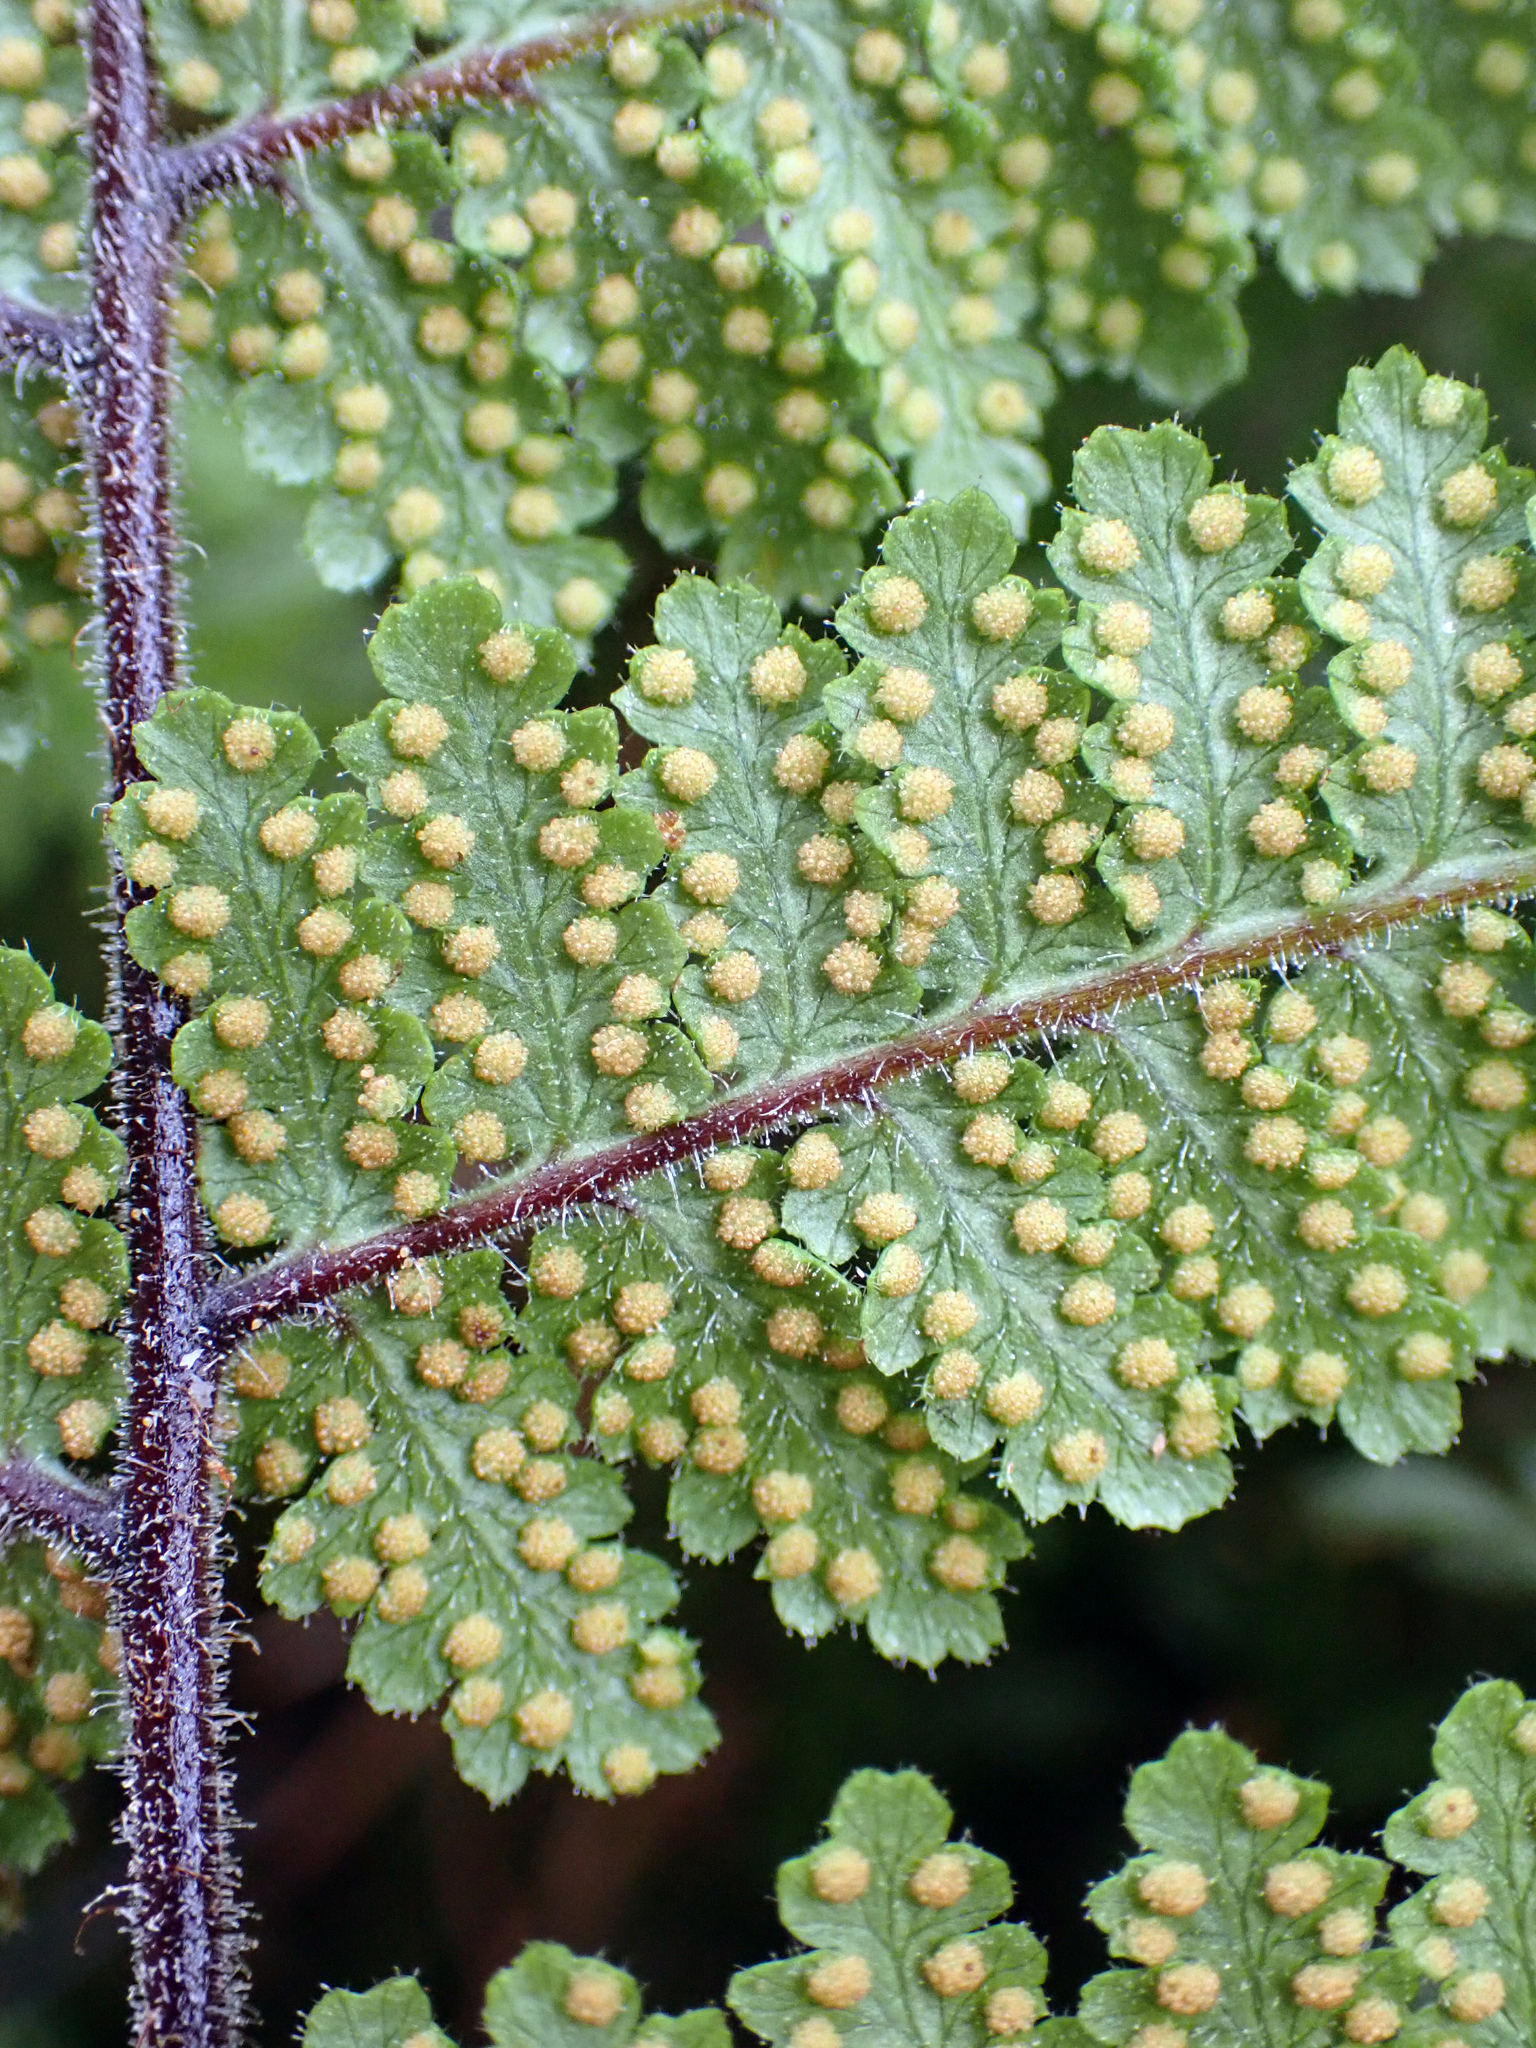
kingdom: Plantae
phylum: Tracheophyta
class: Polypodiopsida
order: Polypodiales
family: Dennstaedtiaceae
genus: Hypolepis
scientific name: Hypolepis rugosula
